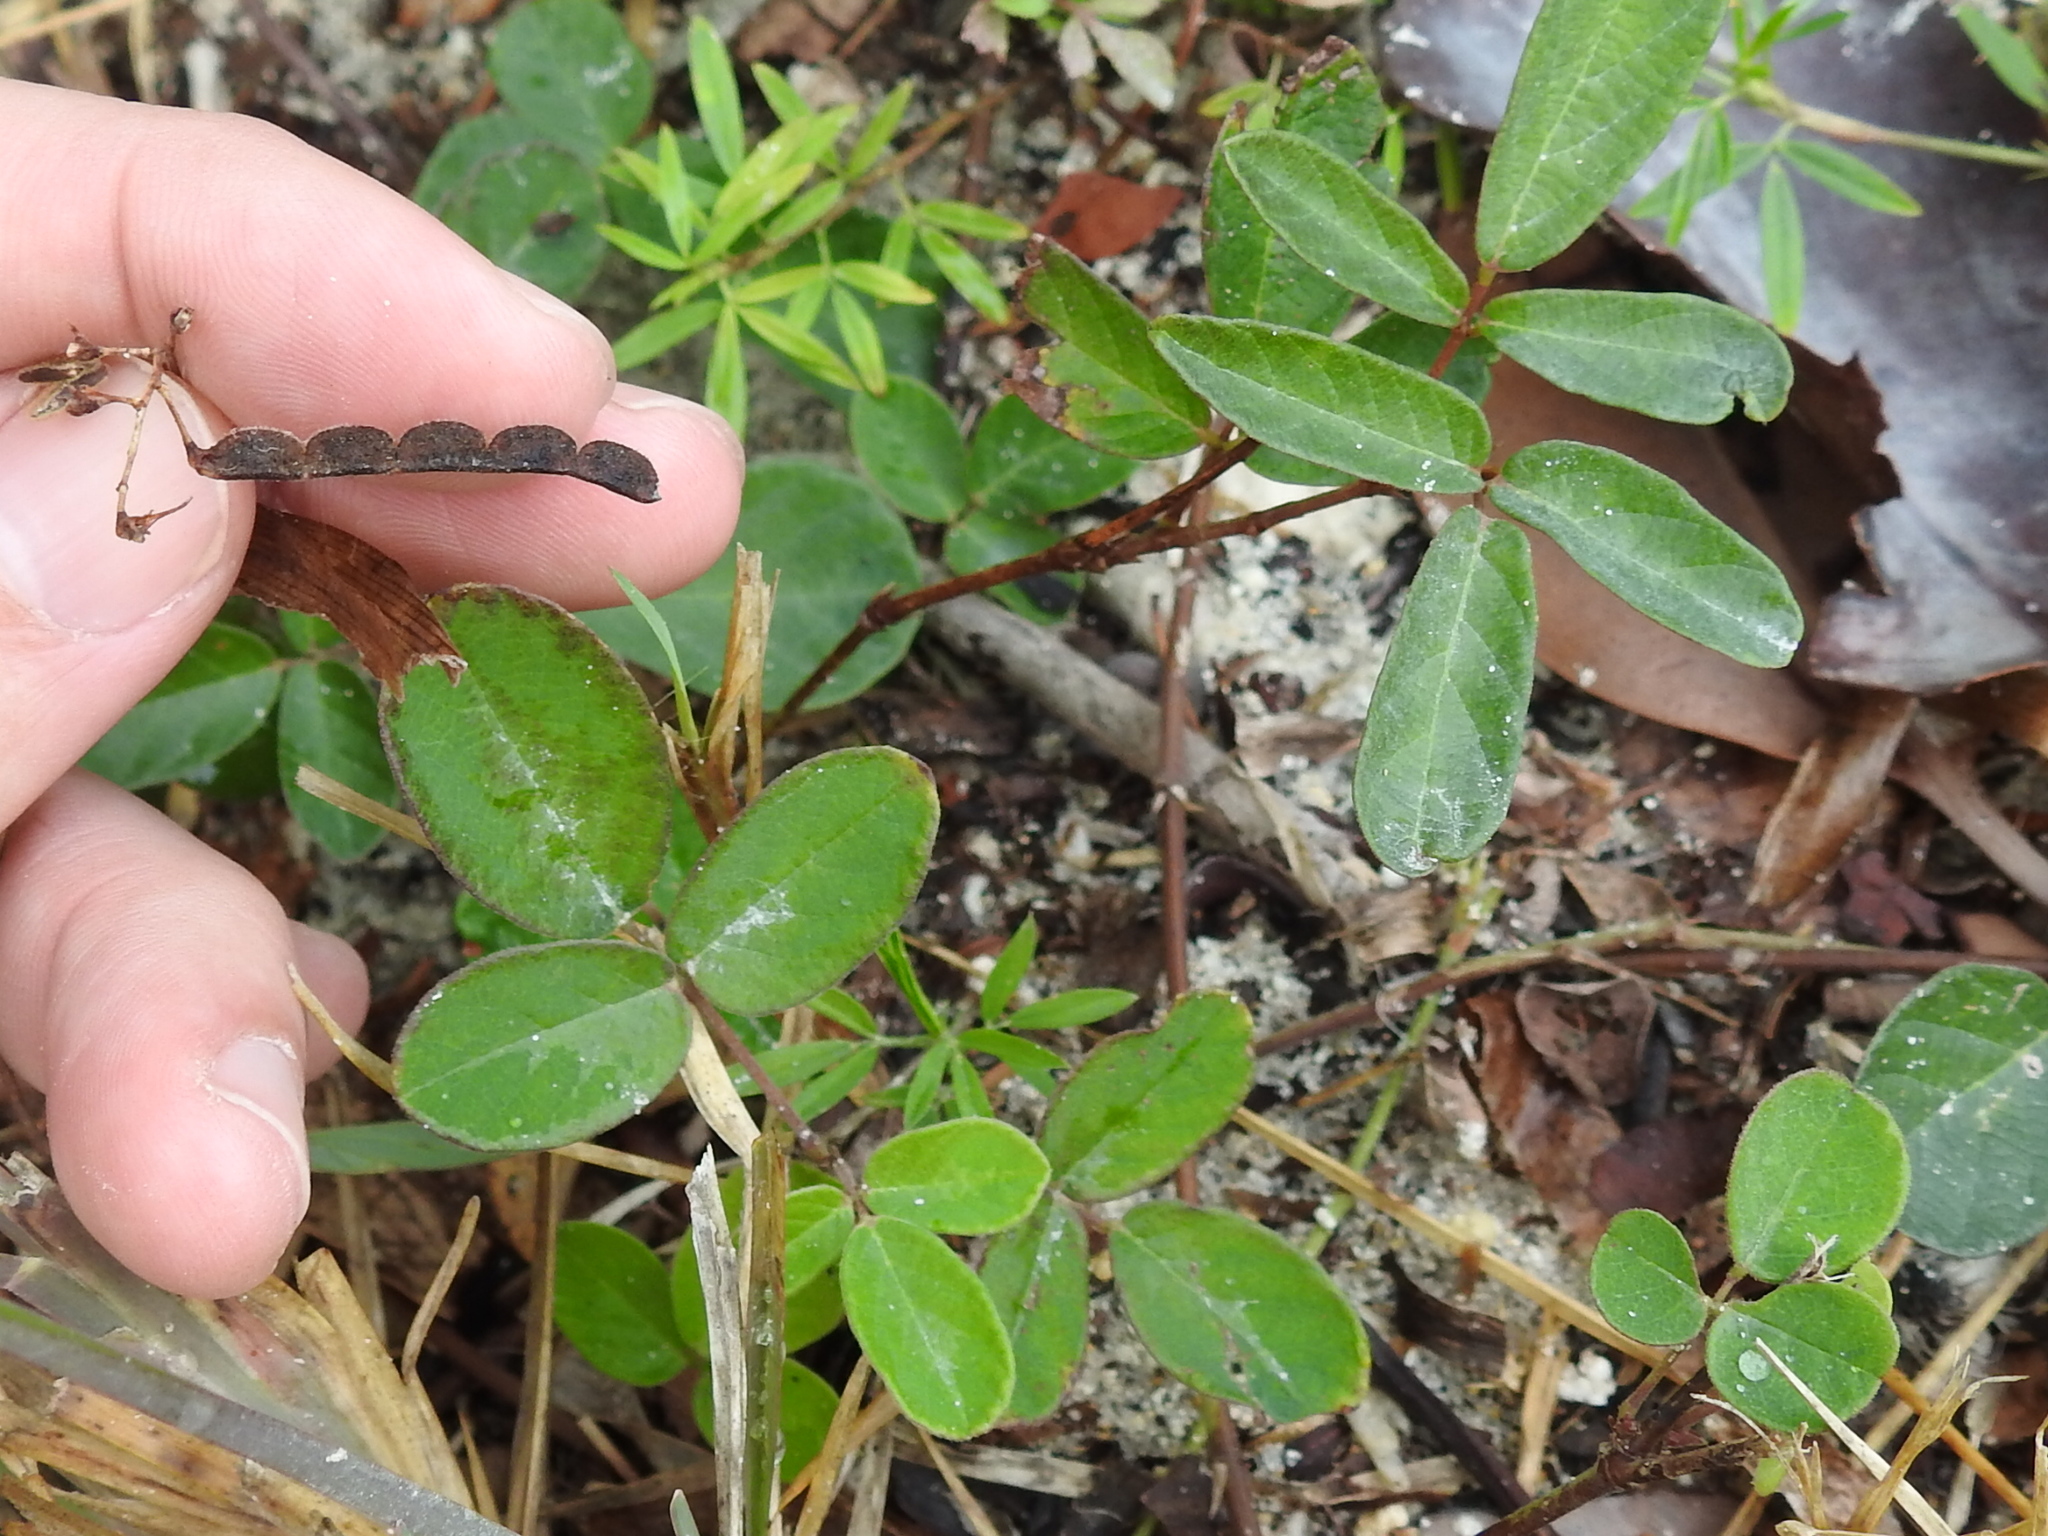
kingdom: Plantae
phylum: Tracheophyta
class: Magnoliopsida
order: Fabales
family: Fabaceae
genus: Desmodium
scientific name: Desmodium incanum
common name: Tickclover
